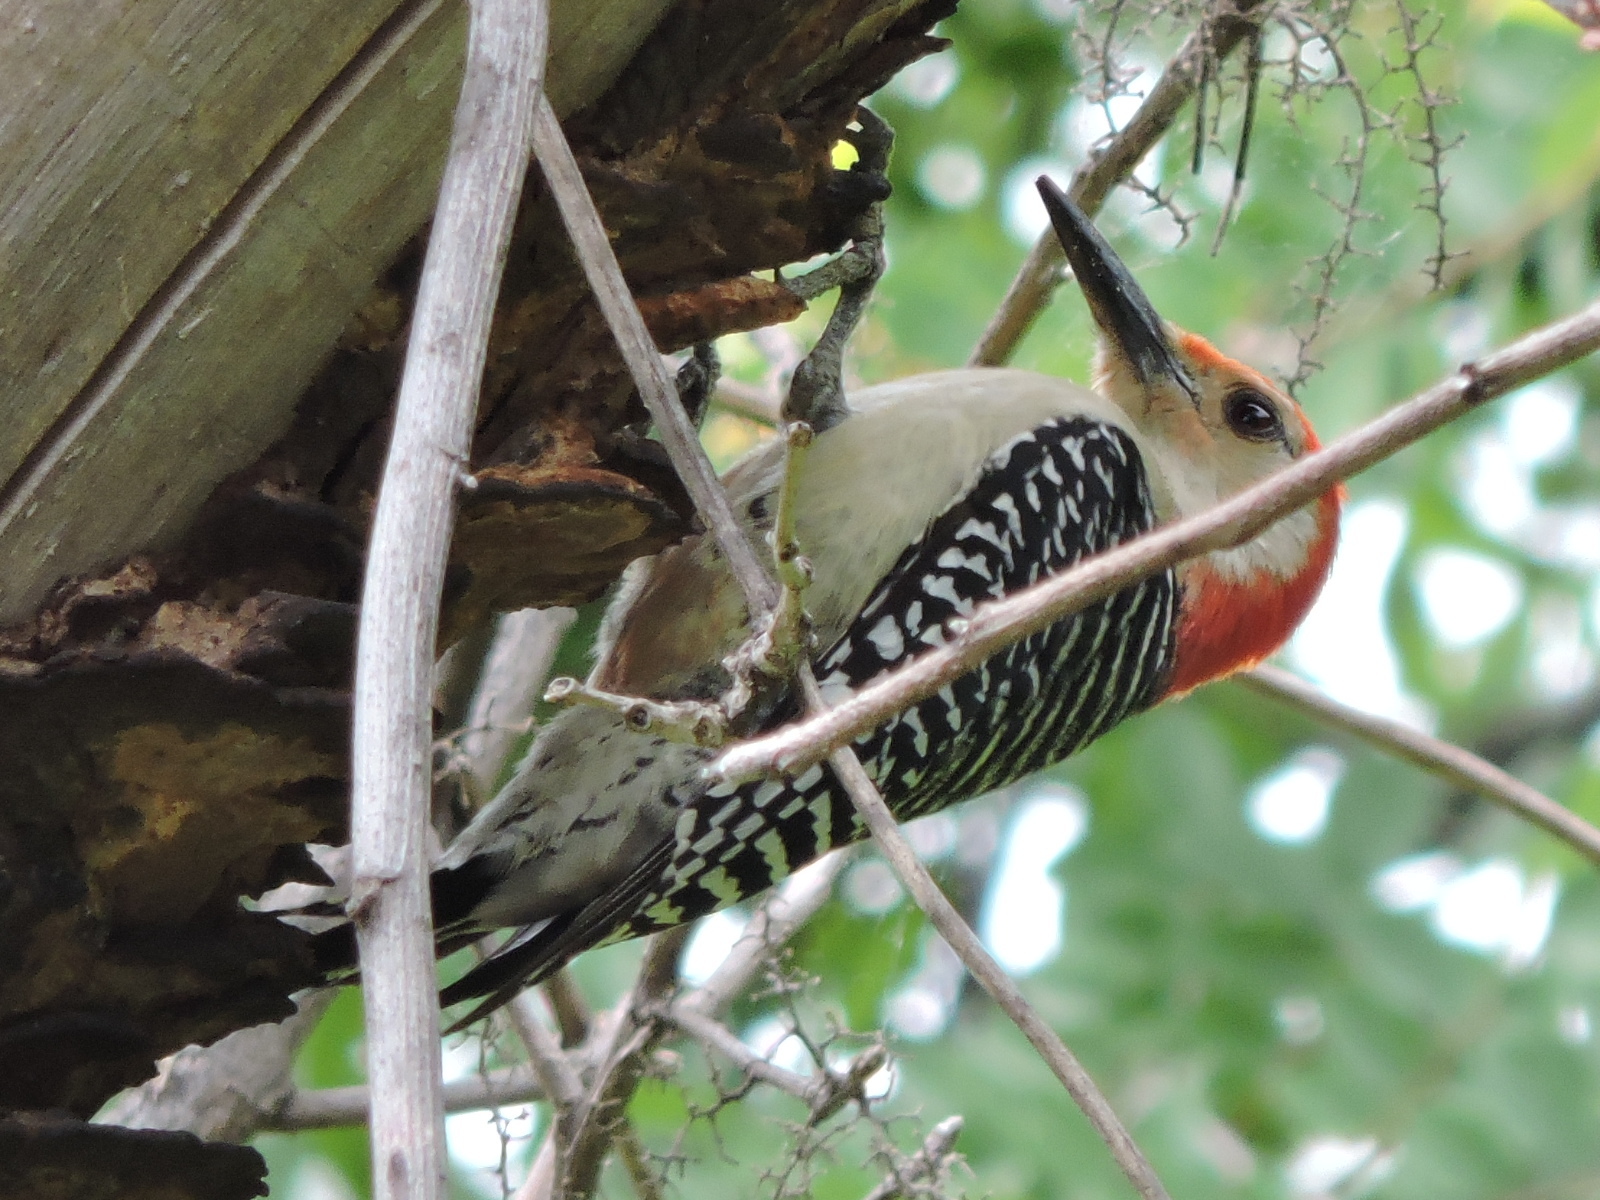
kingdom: Animalia
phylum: Chordata
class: Aves
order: Piciformes
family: Picidae
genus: Melanerpes
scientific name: Melanerpes carolinus
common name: Red-bellied woodpecker
